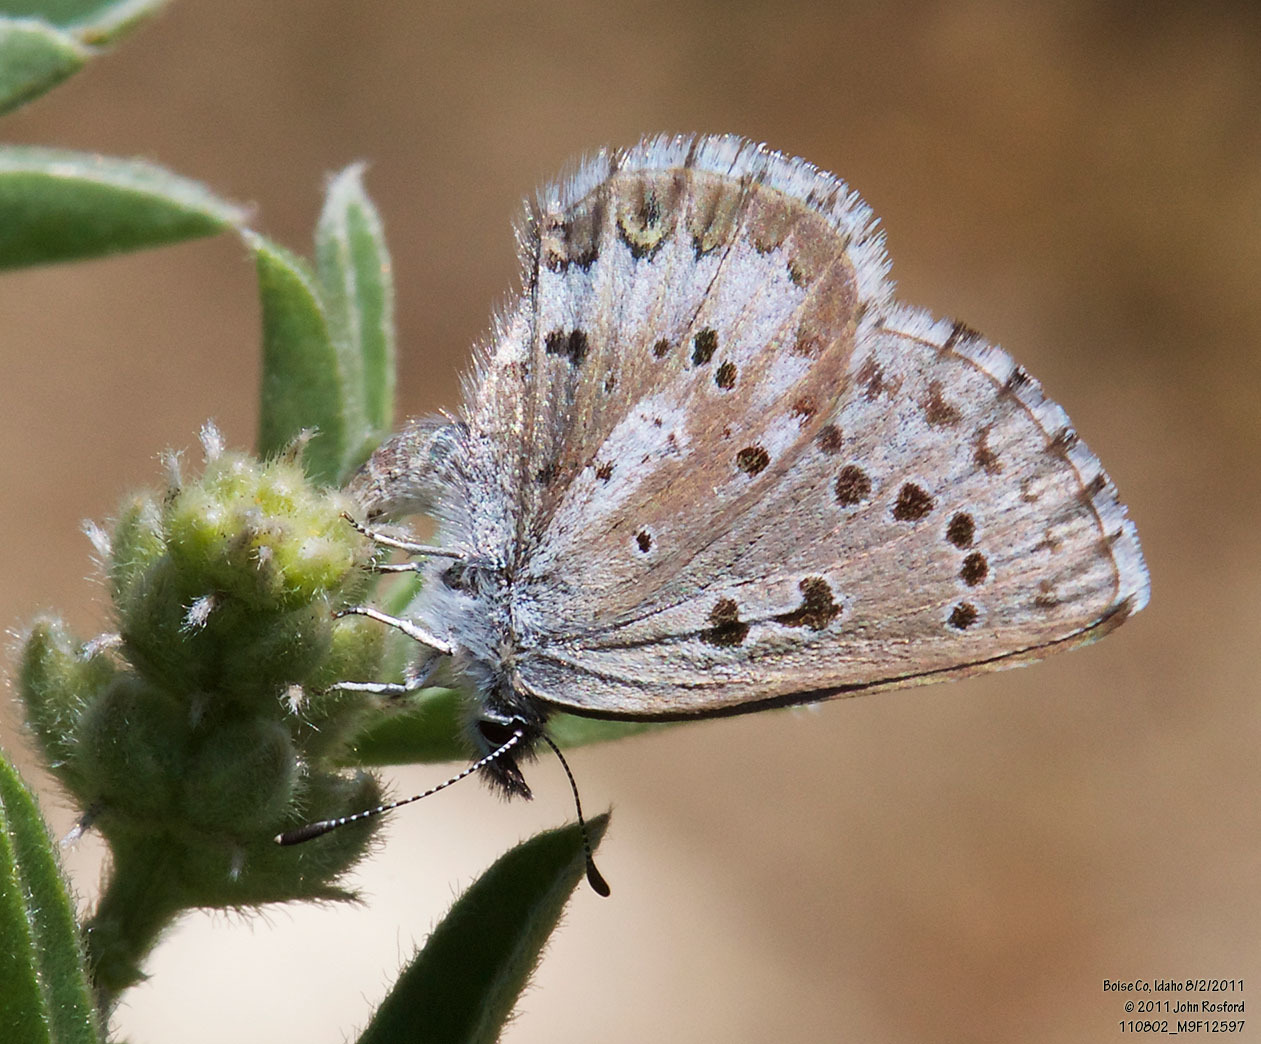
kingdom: Animalia
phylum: Arthropoda
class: Insecta
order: Lepidoptera
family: Lycaenidae
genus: Glaucopsyche
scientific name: Glaucopsyche piasus
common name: Arrowhead blue
